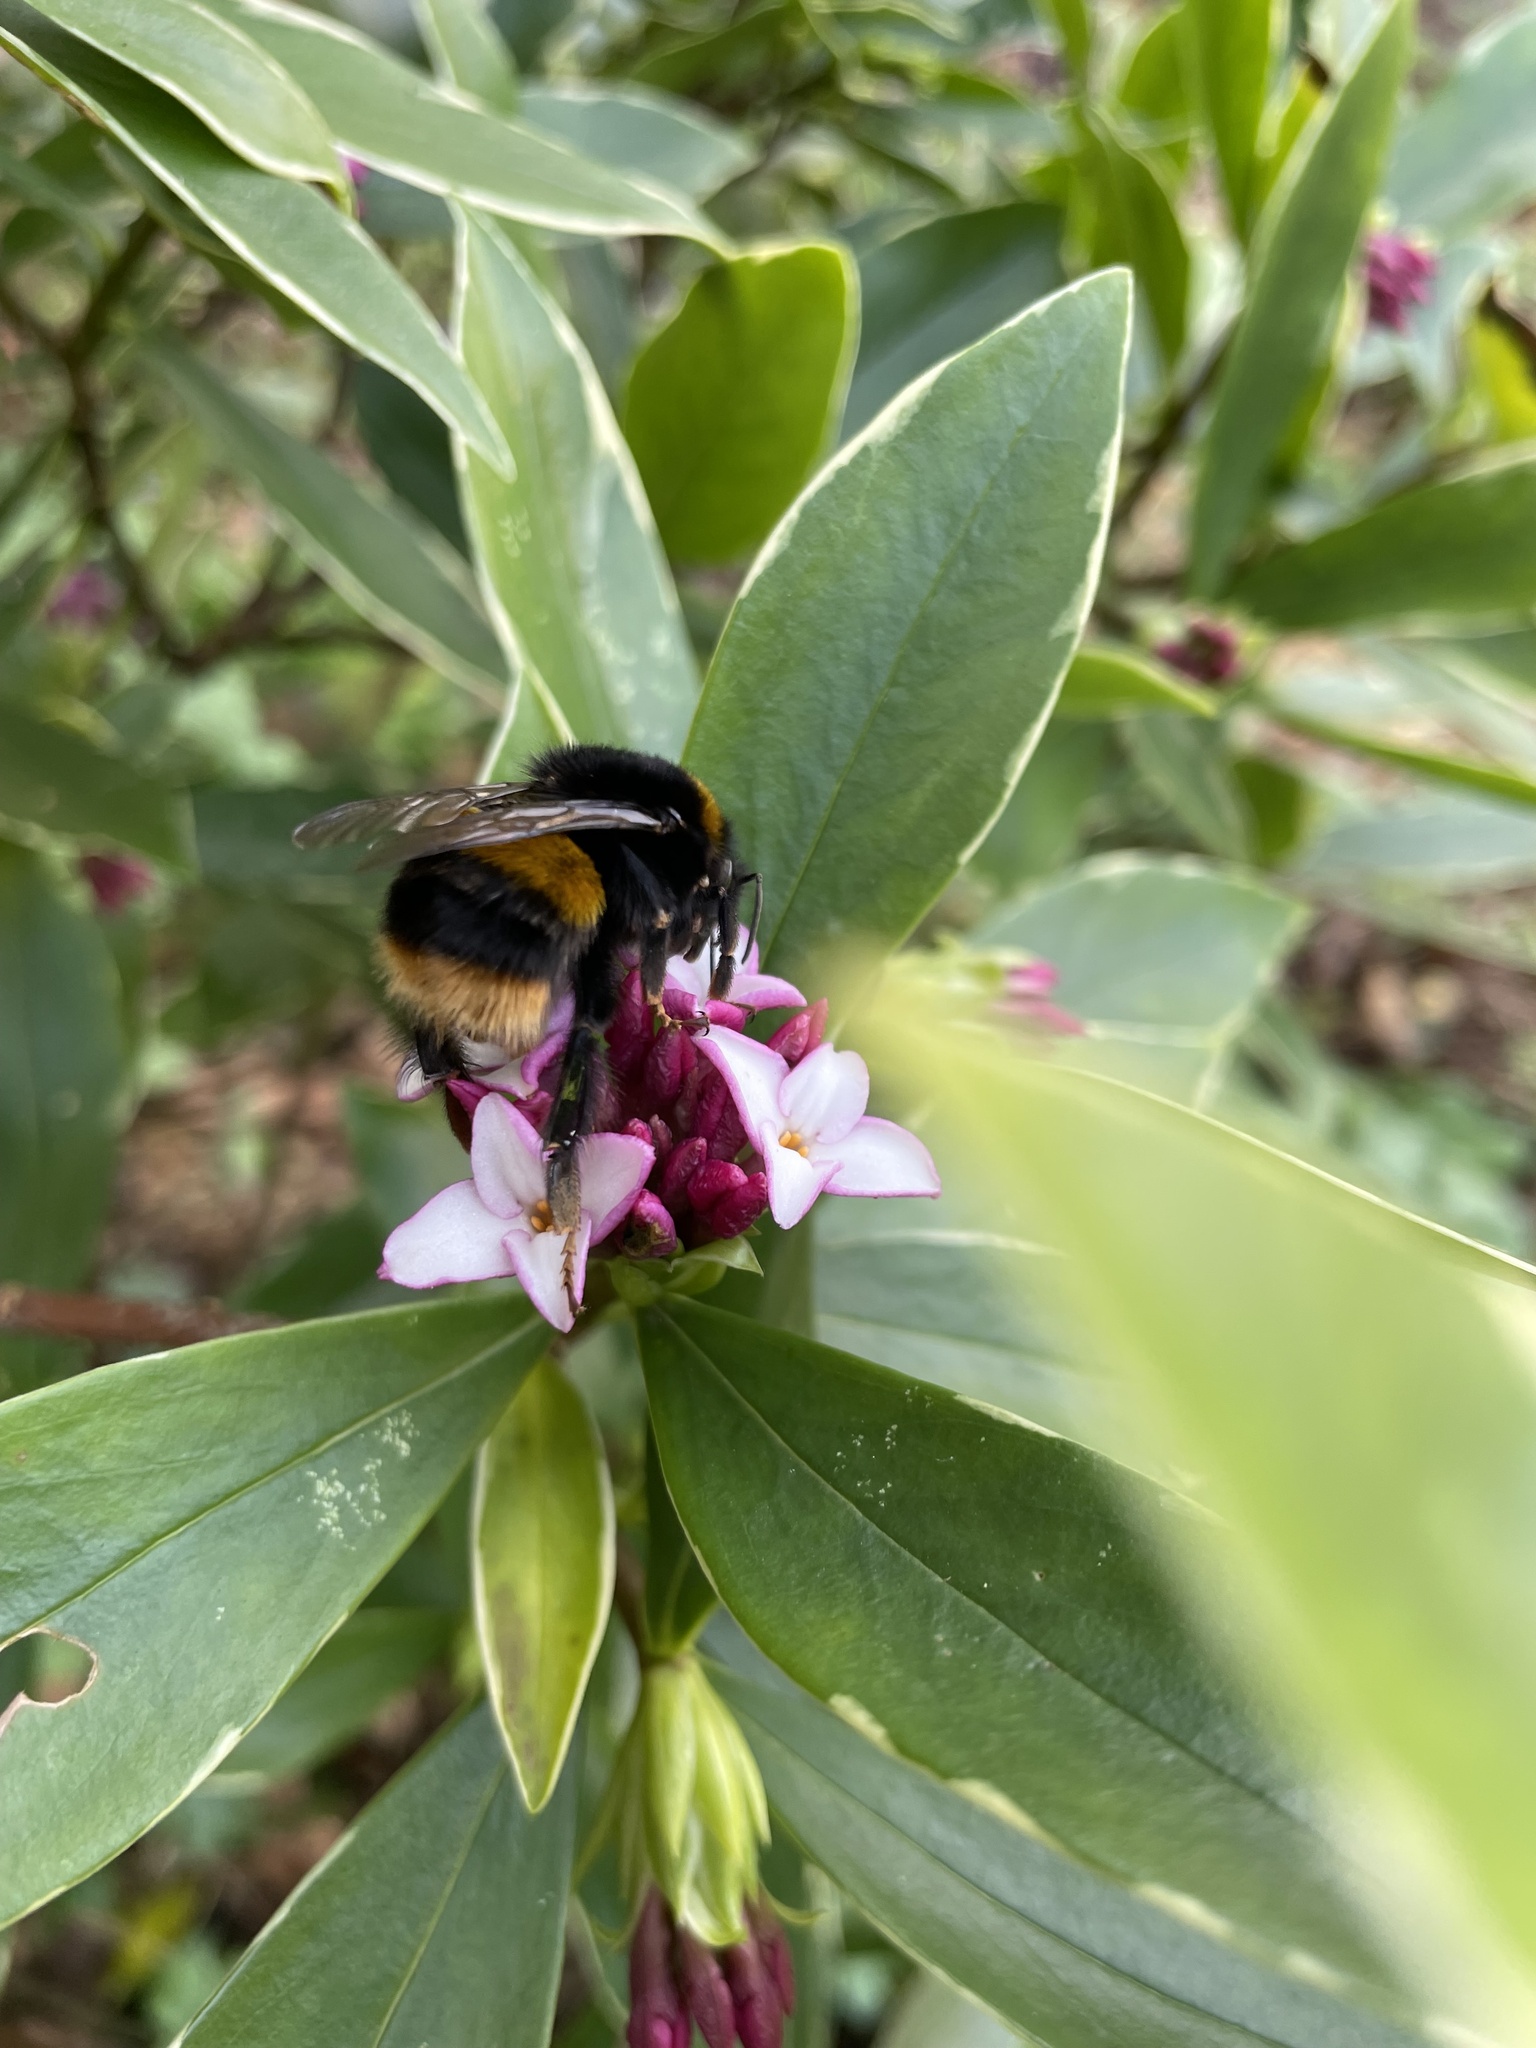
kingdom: Animalia
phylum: Arthropoda
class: Insecta
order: Hymenoptera
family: Apidae
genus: Bombus
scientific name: Bombus terrestris
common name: Buff-tailed bumblebee
